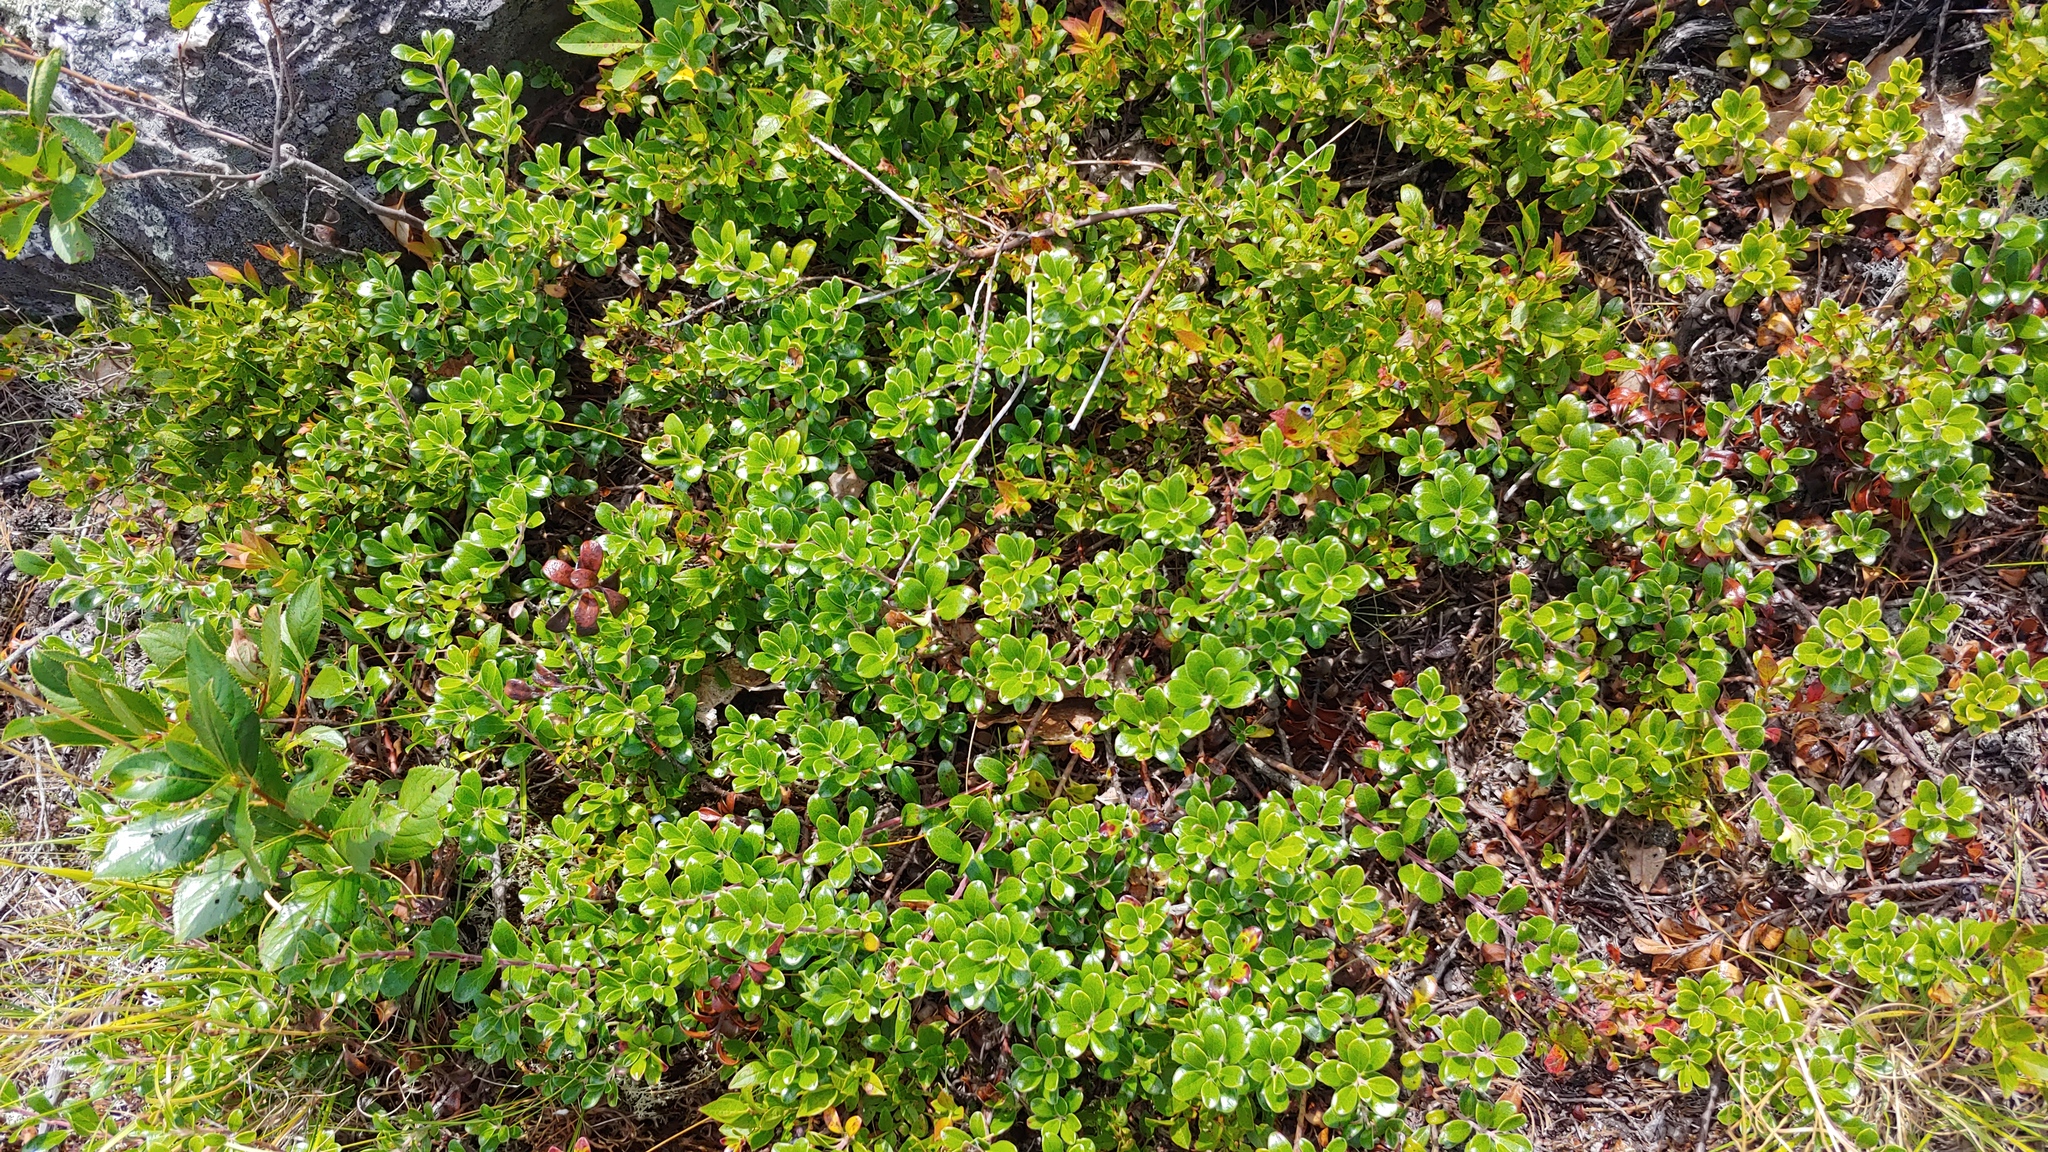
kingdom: Plantae
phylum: Tracheophyta
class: Magnoliopsida
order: Ericales
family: Ericaceae
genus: Arctostaphylos
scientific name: Arctostaphylos uva-ursi
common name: Bearberry
